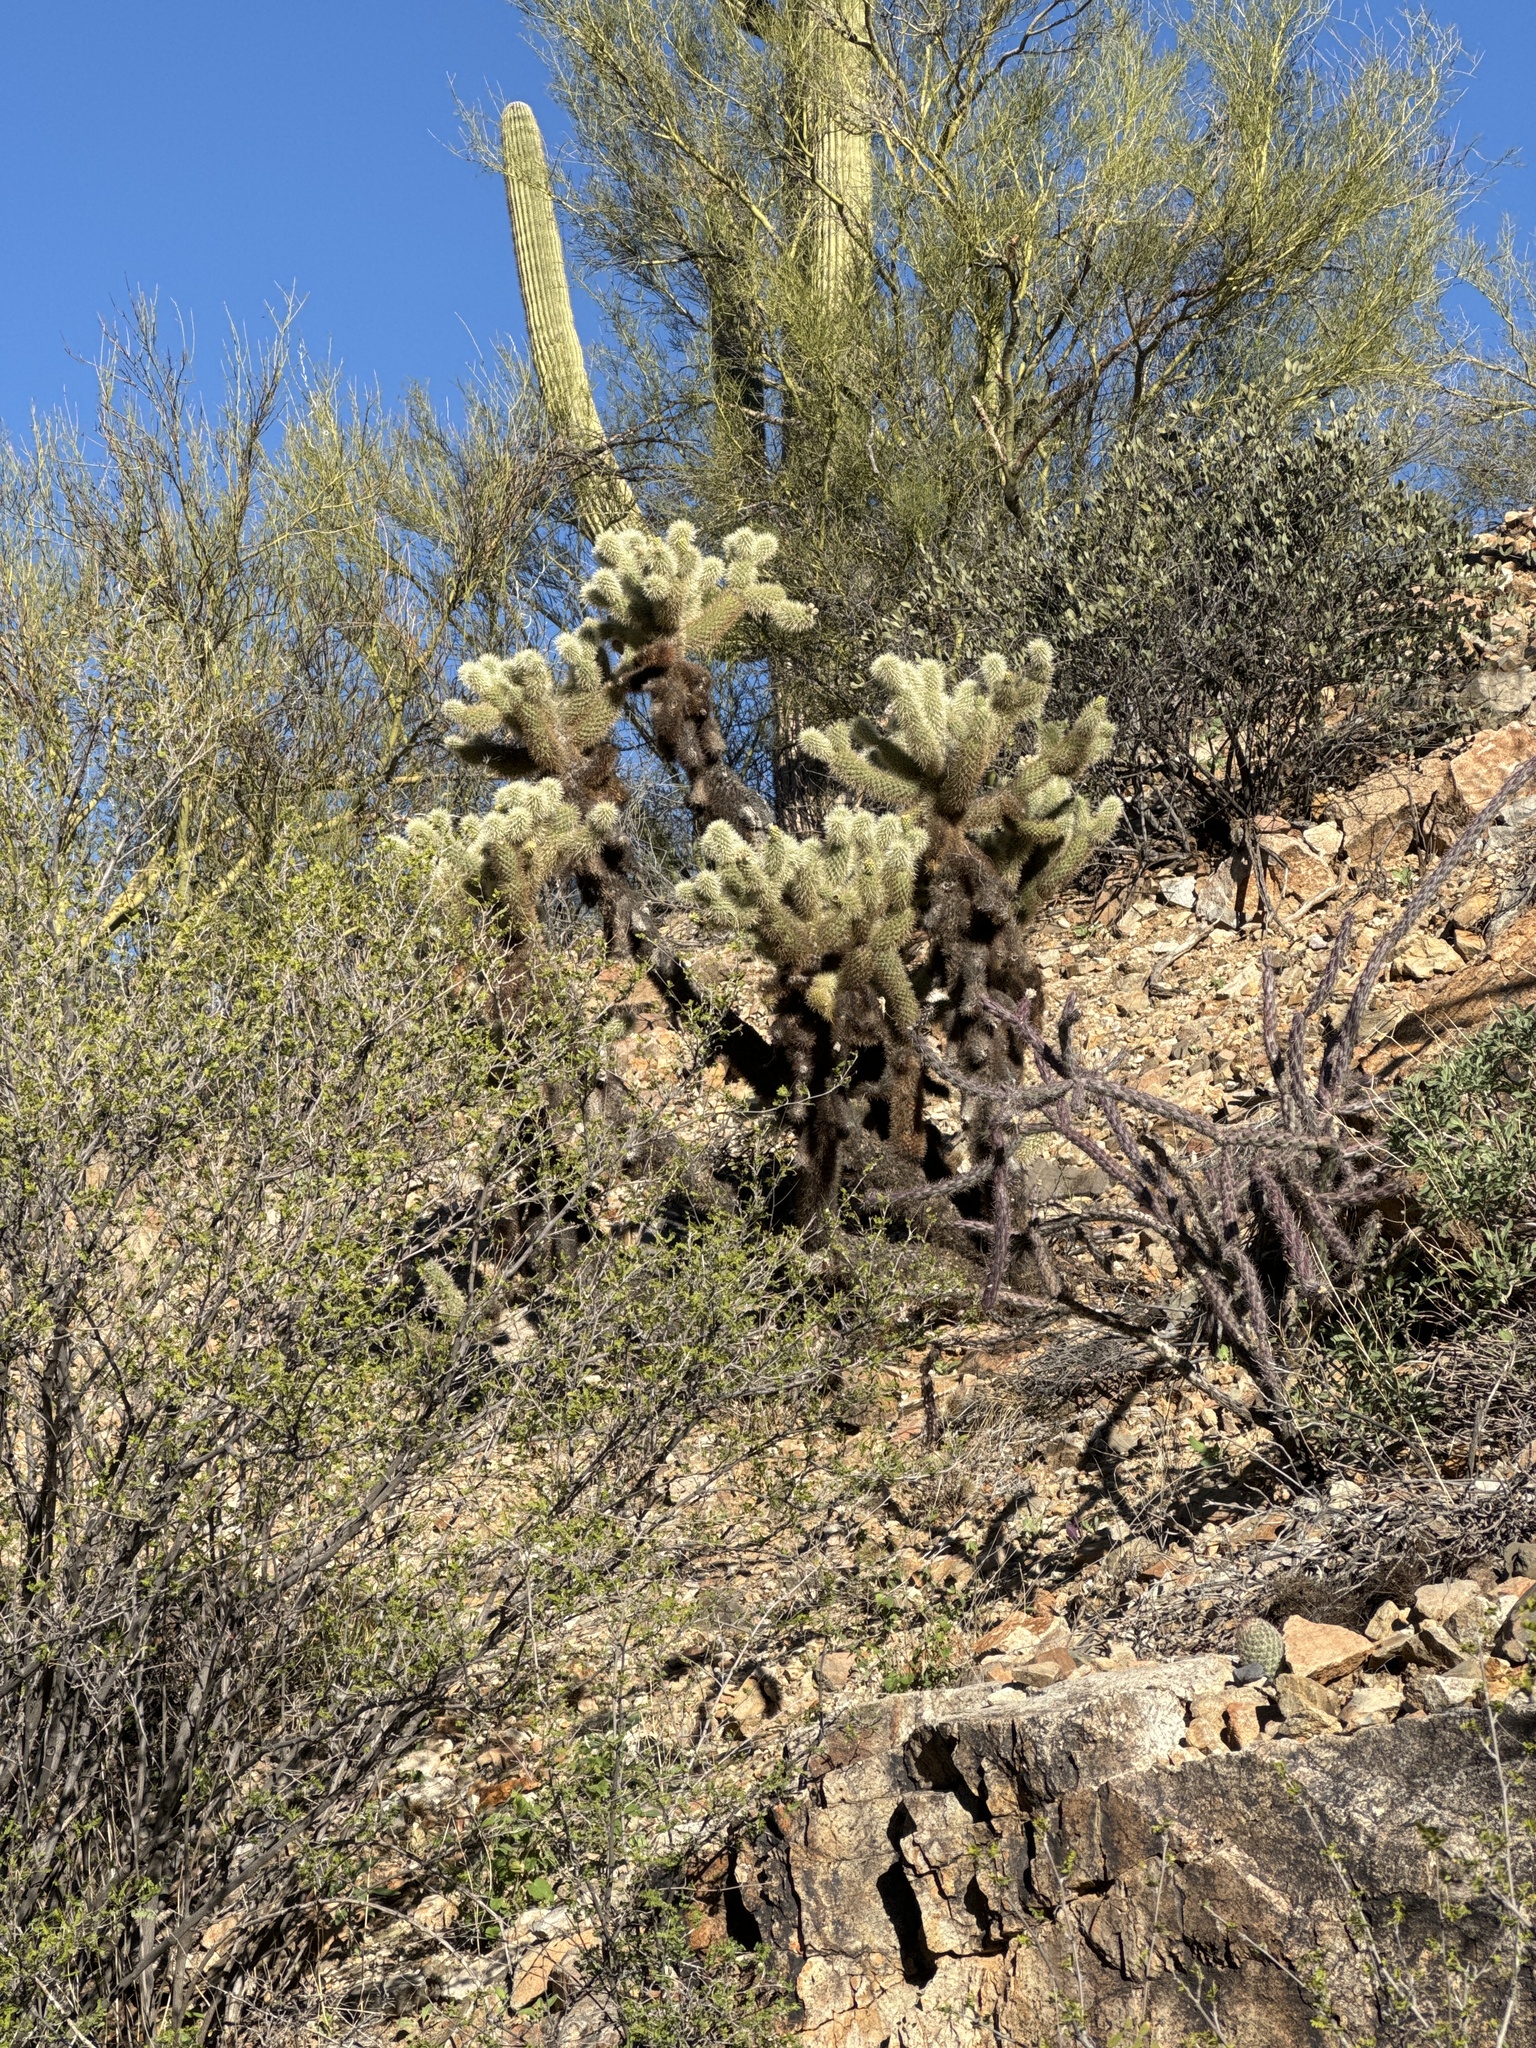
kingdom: Plantae
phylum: Tracheophyta
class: Magnoliopsida
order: Caryophyllales
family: Cactaceae
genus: Cylindropuntia
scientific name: Cylindropuntia fosbergii
